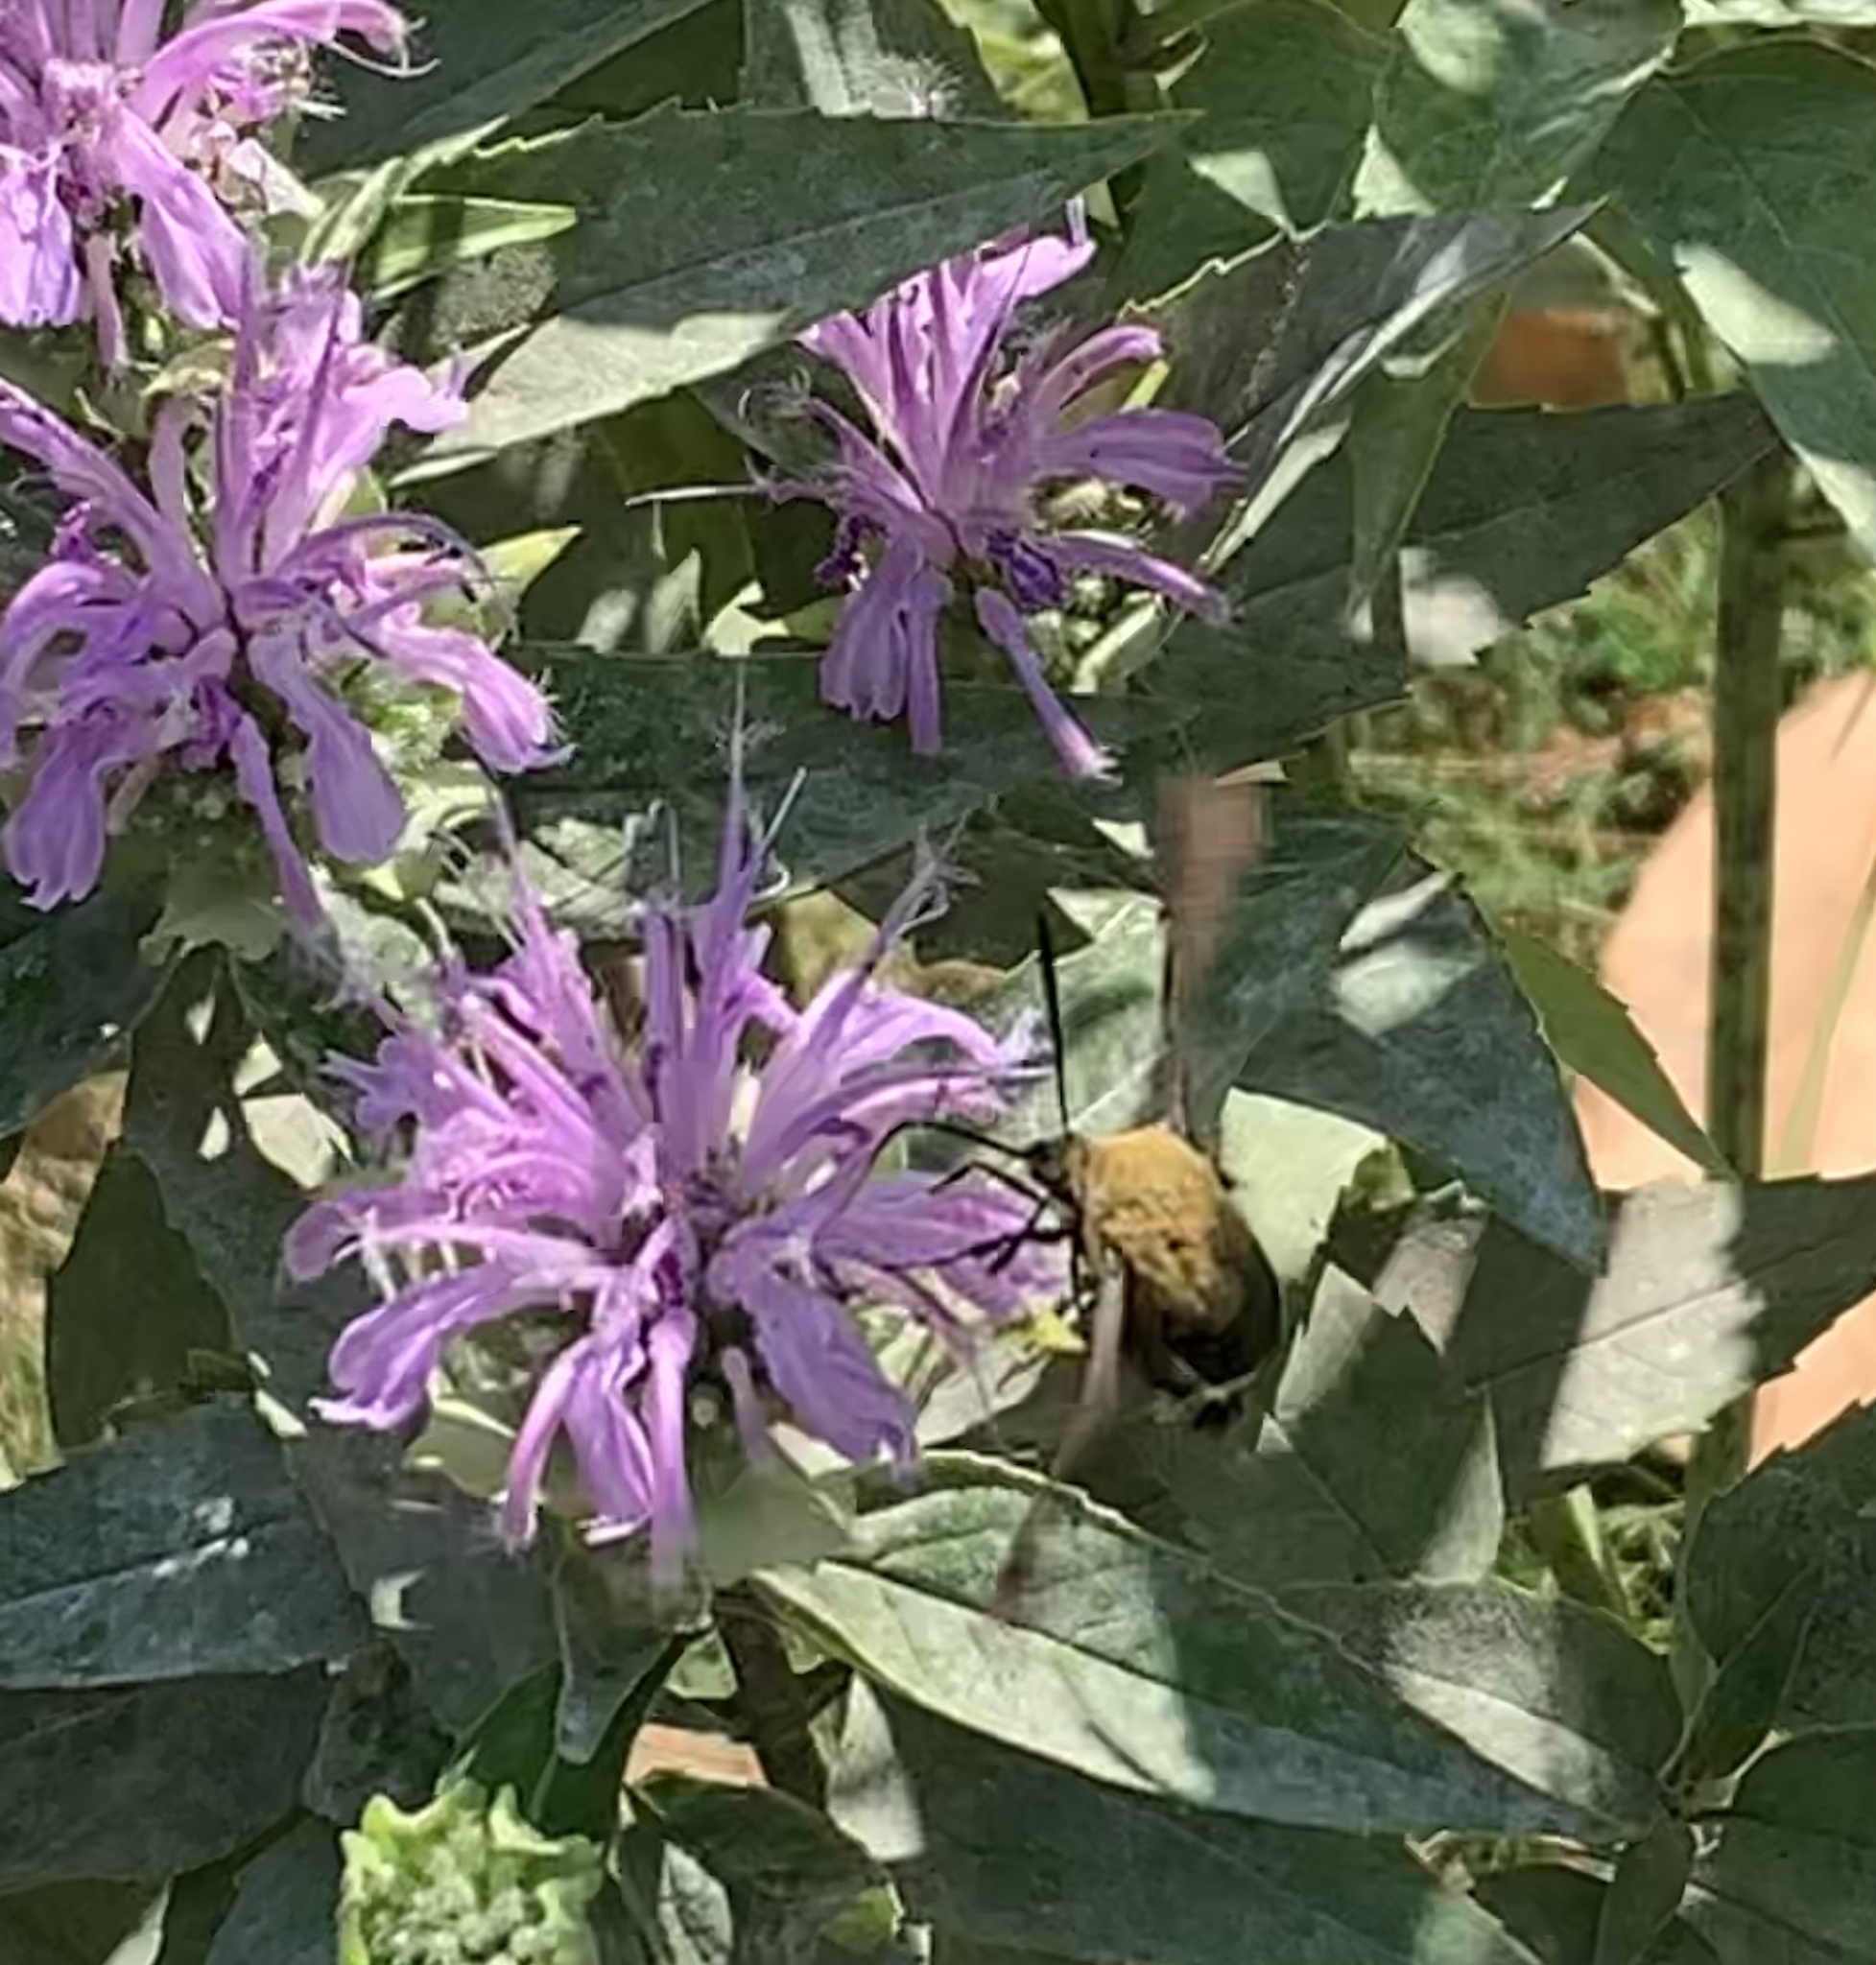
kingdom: Animalia
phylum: Arthropoda
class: Insecta
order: Lepidoptera
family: Sphingidae
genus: Hemaris
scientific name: Hemaris diffinis
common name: Bumblebee moth
